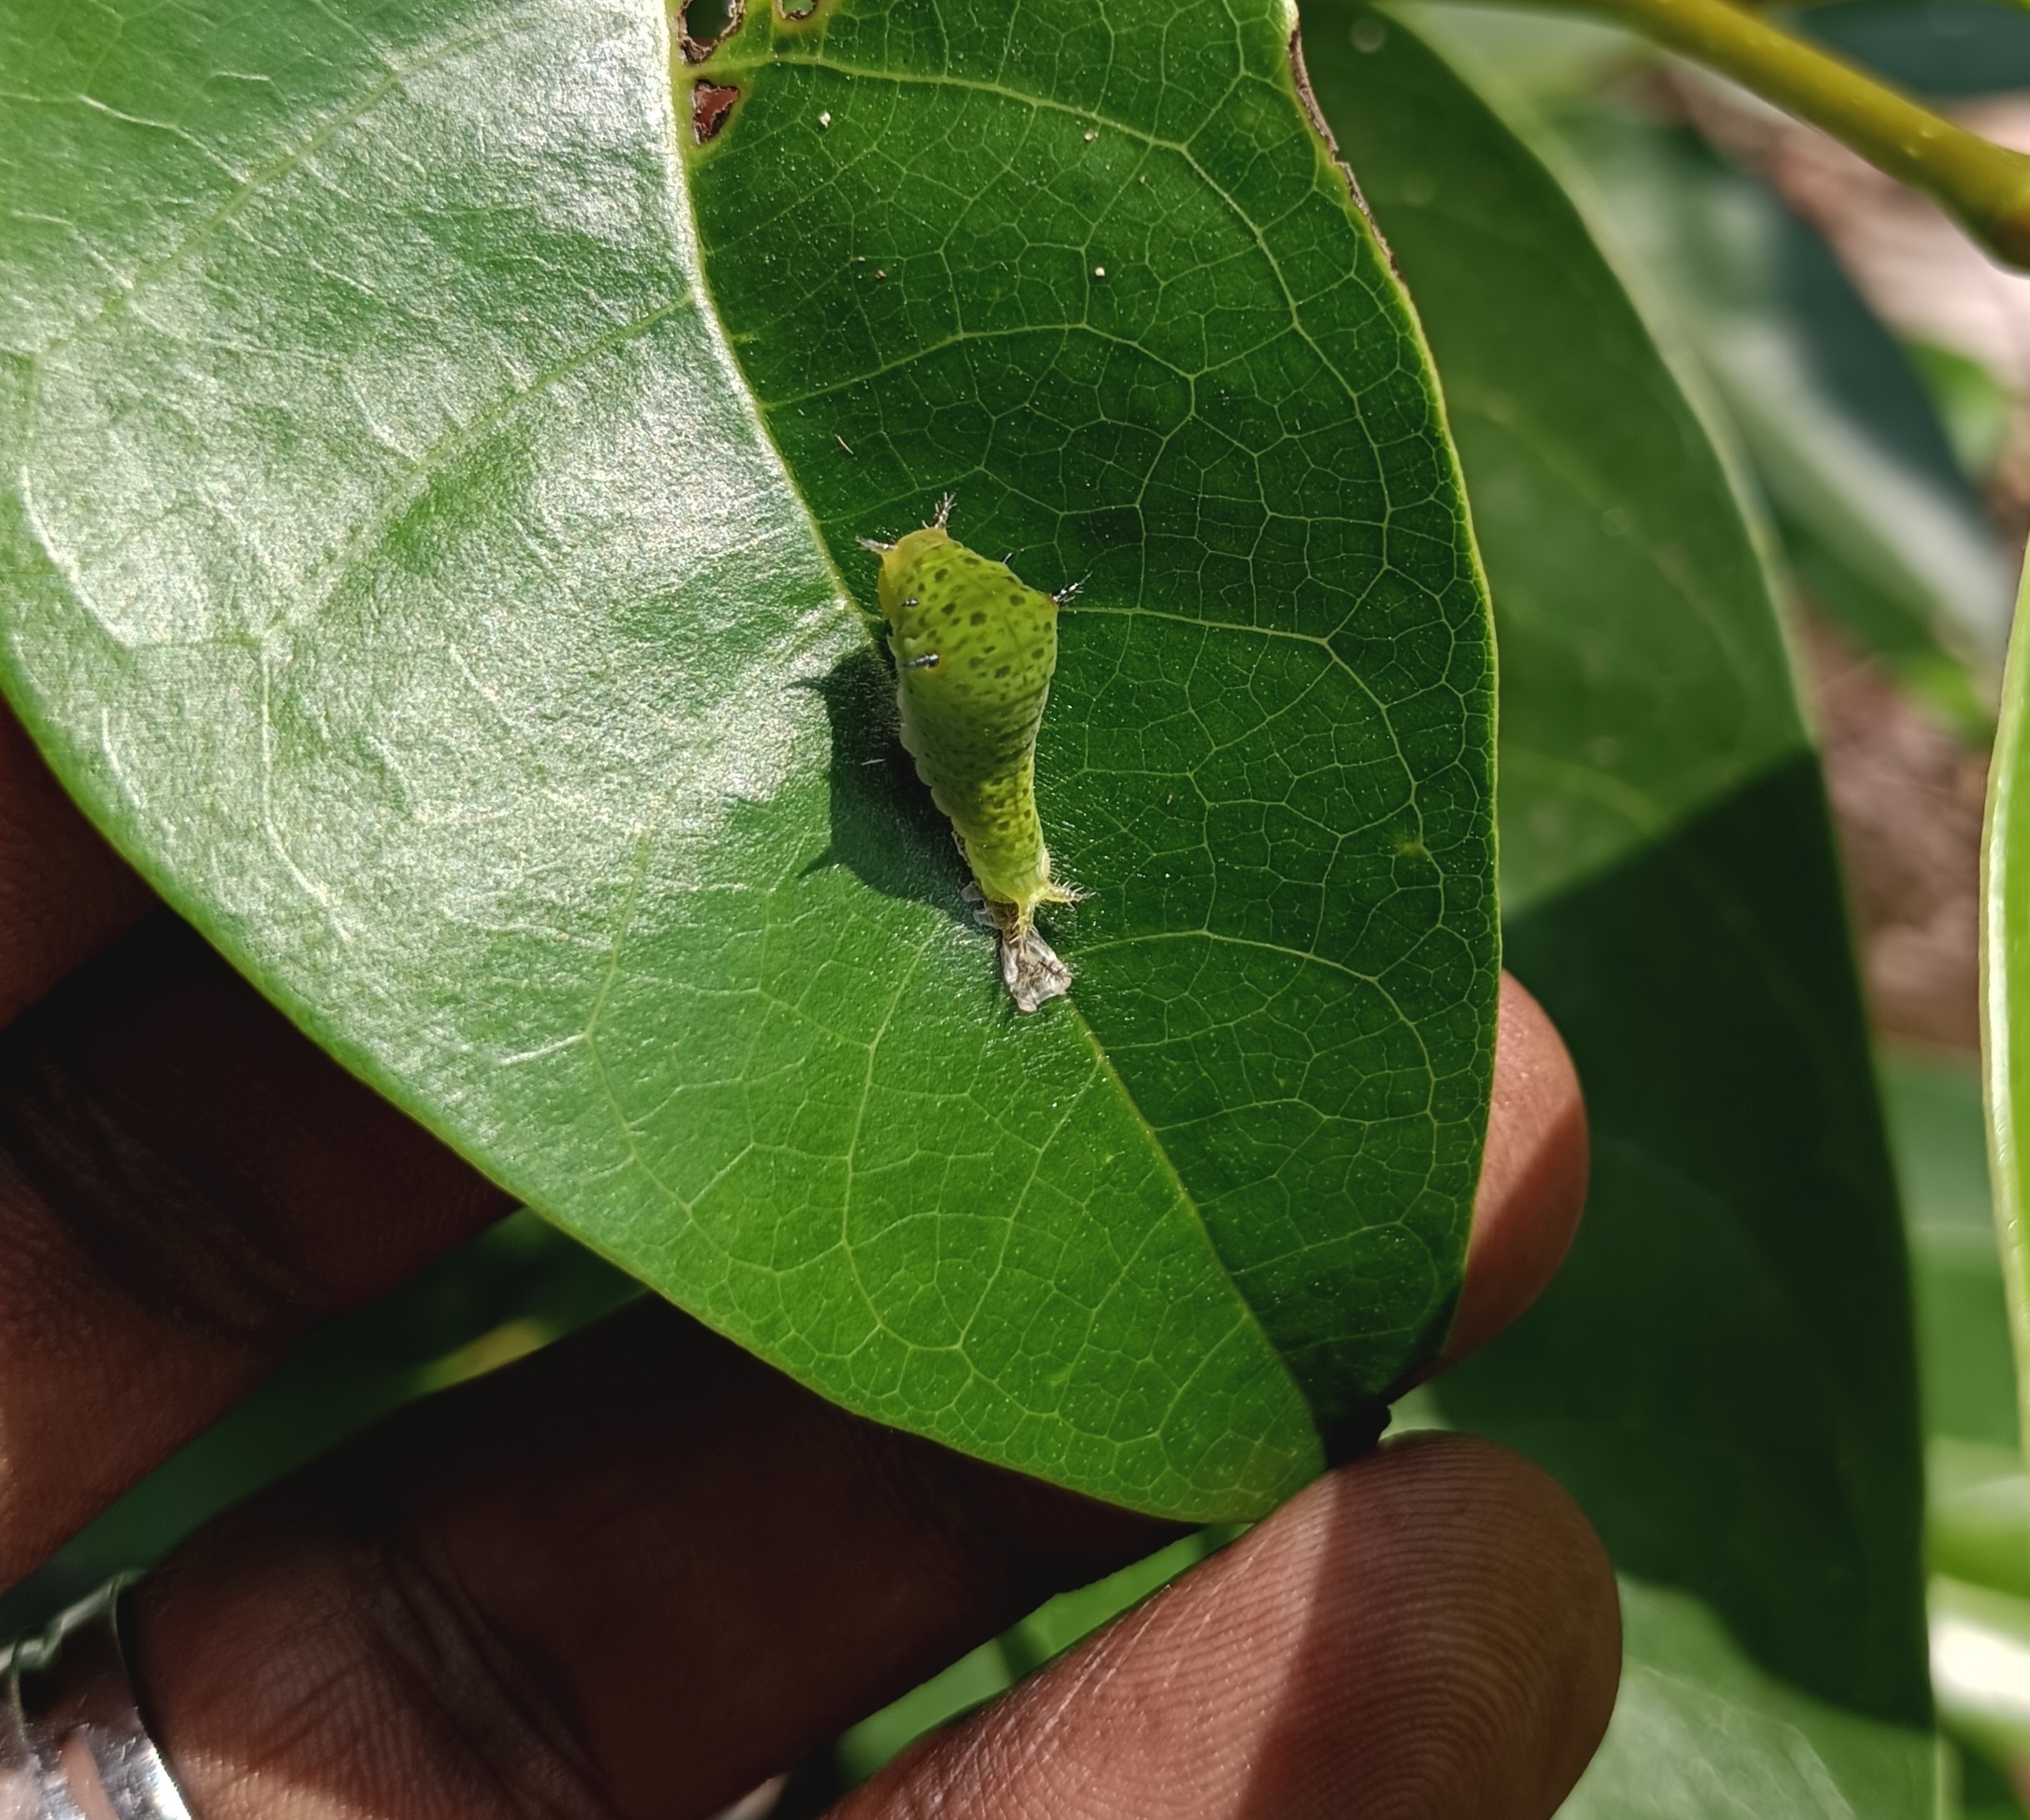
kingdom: Animalia
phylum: Arthropoda
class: Insecta
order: Lepidoptera
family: Papilionidae
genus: Graphium
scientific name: Graphium agamemnon
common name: Tailed jay
